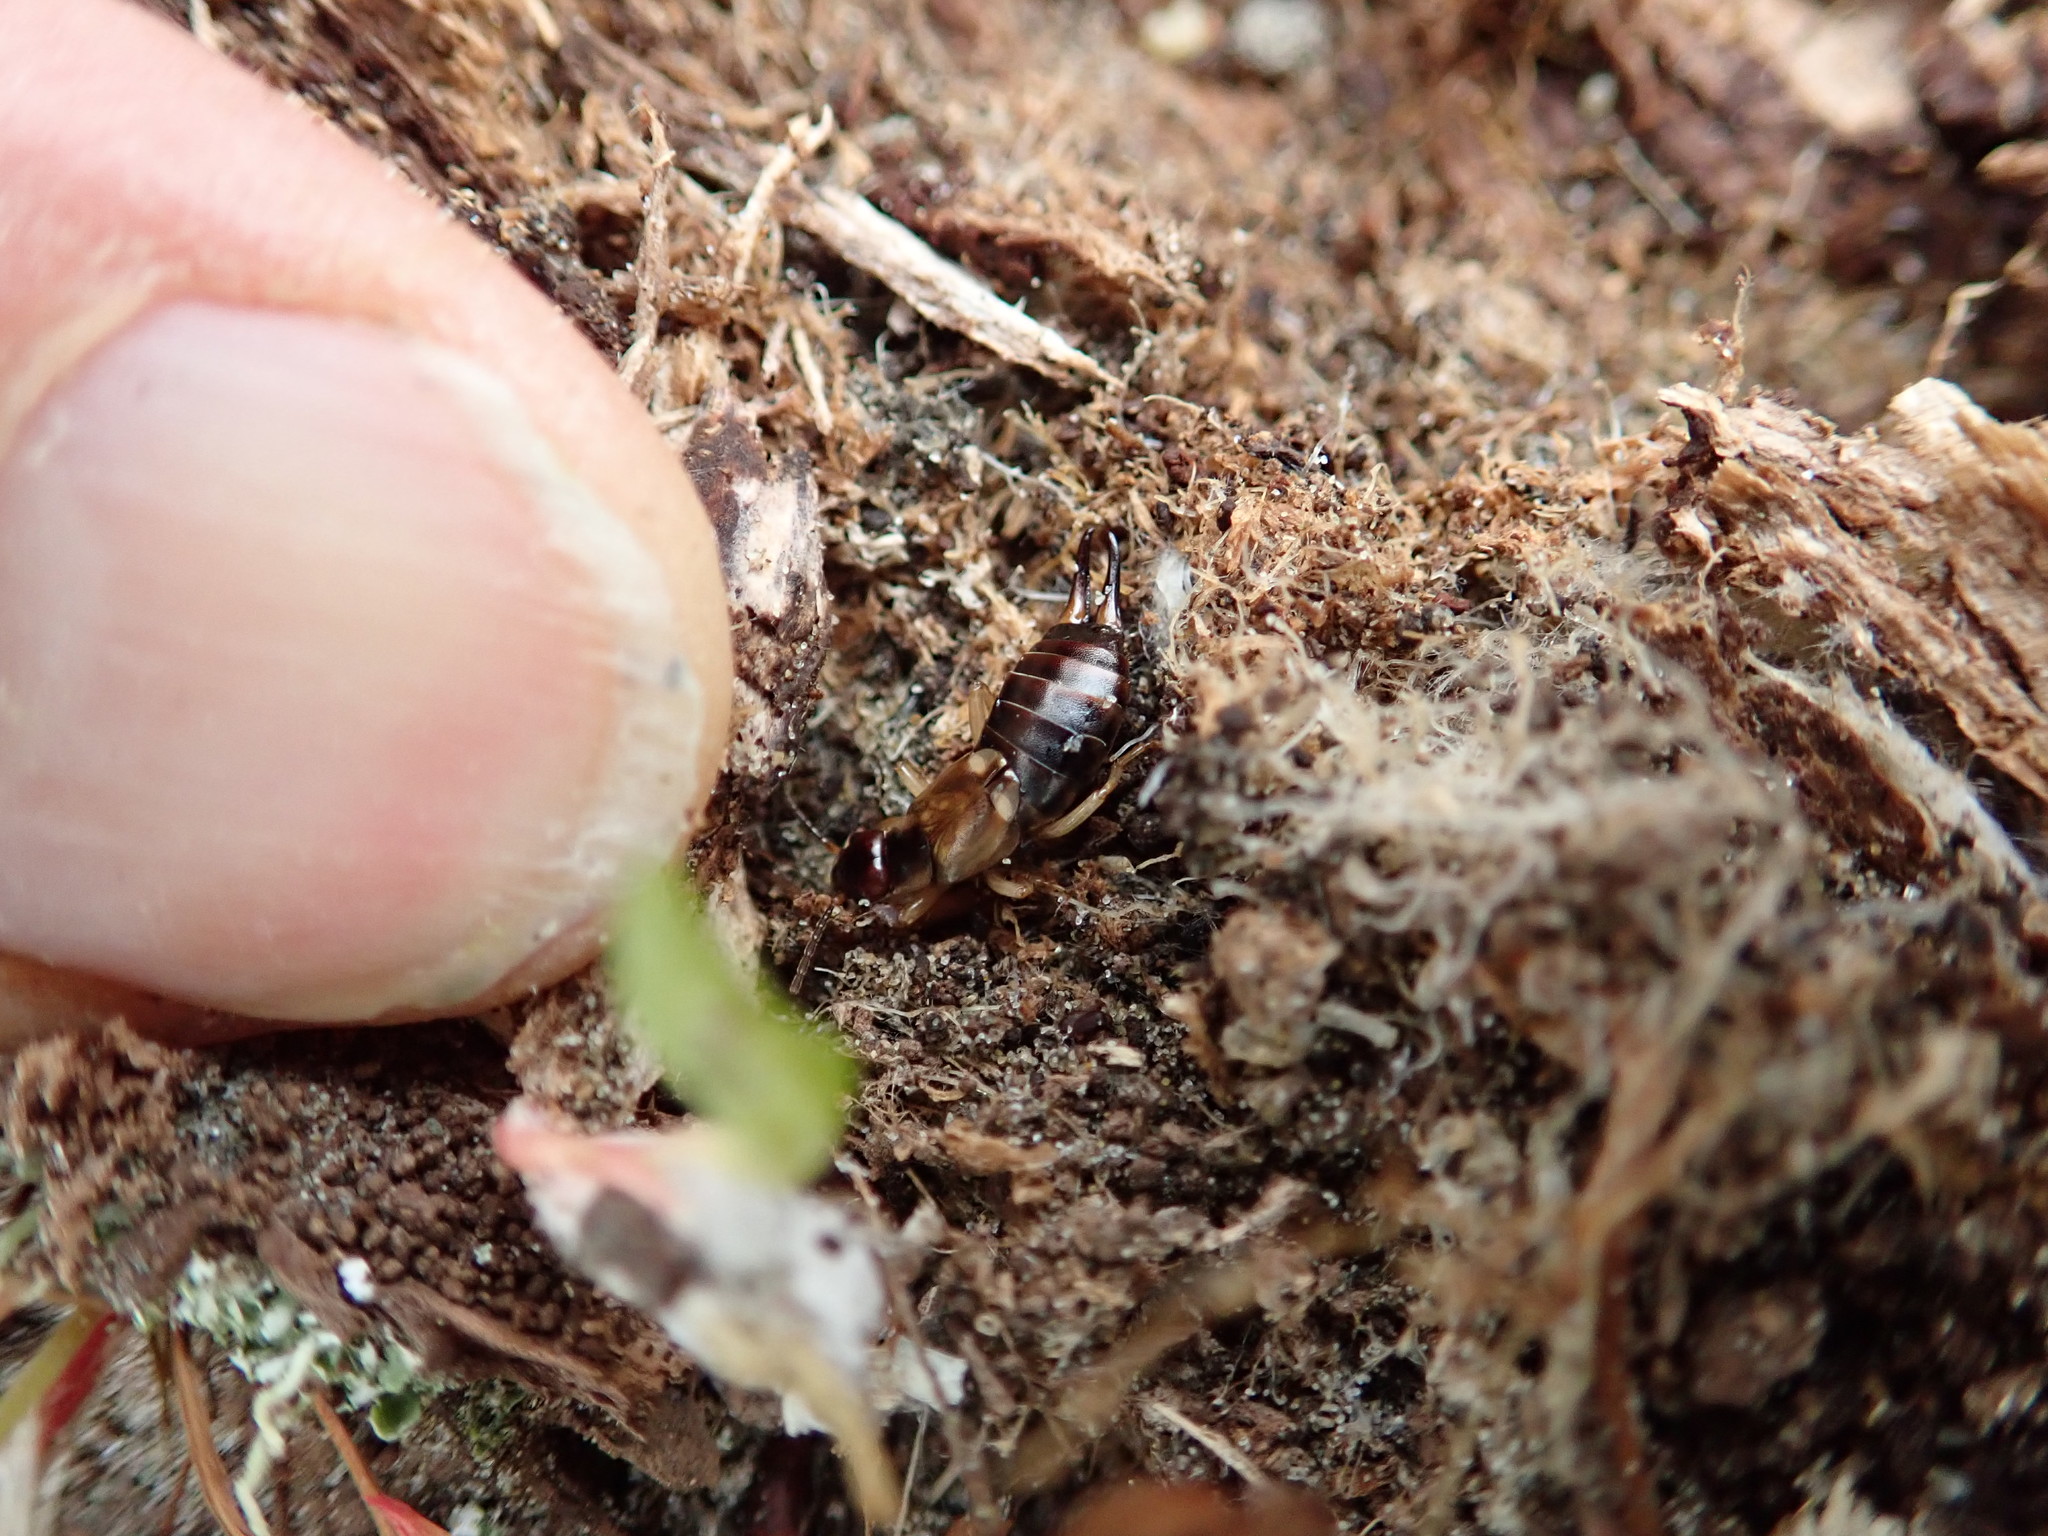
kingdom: Animalia
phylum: Arthropoda
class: Insecta
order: Dermaptera
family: Forficulidae
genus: Forficula
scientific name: Forficula
